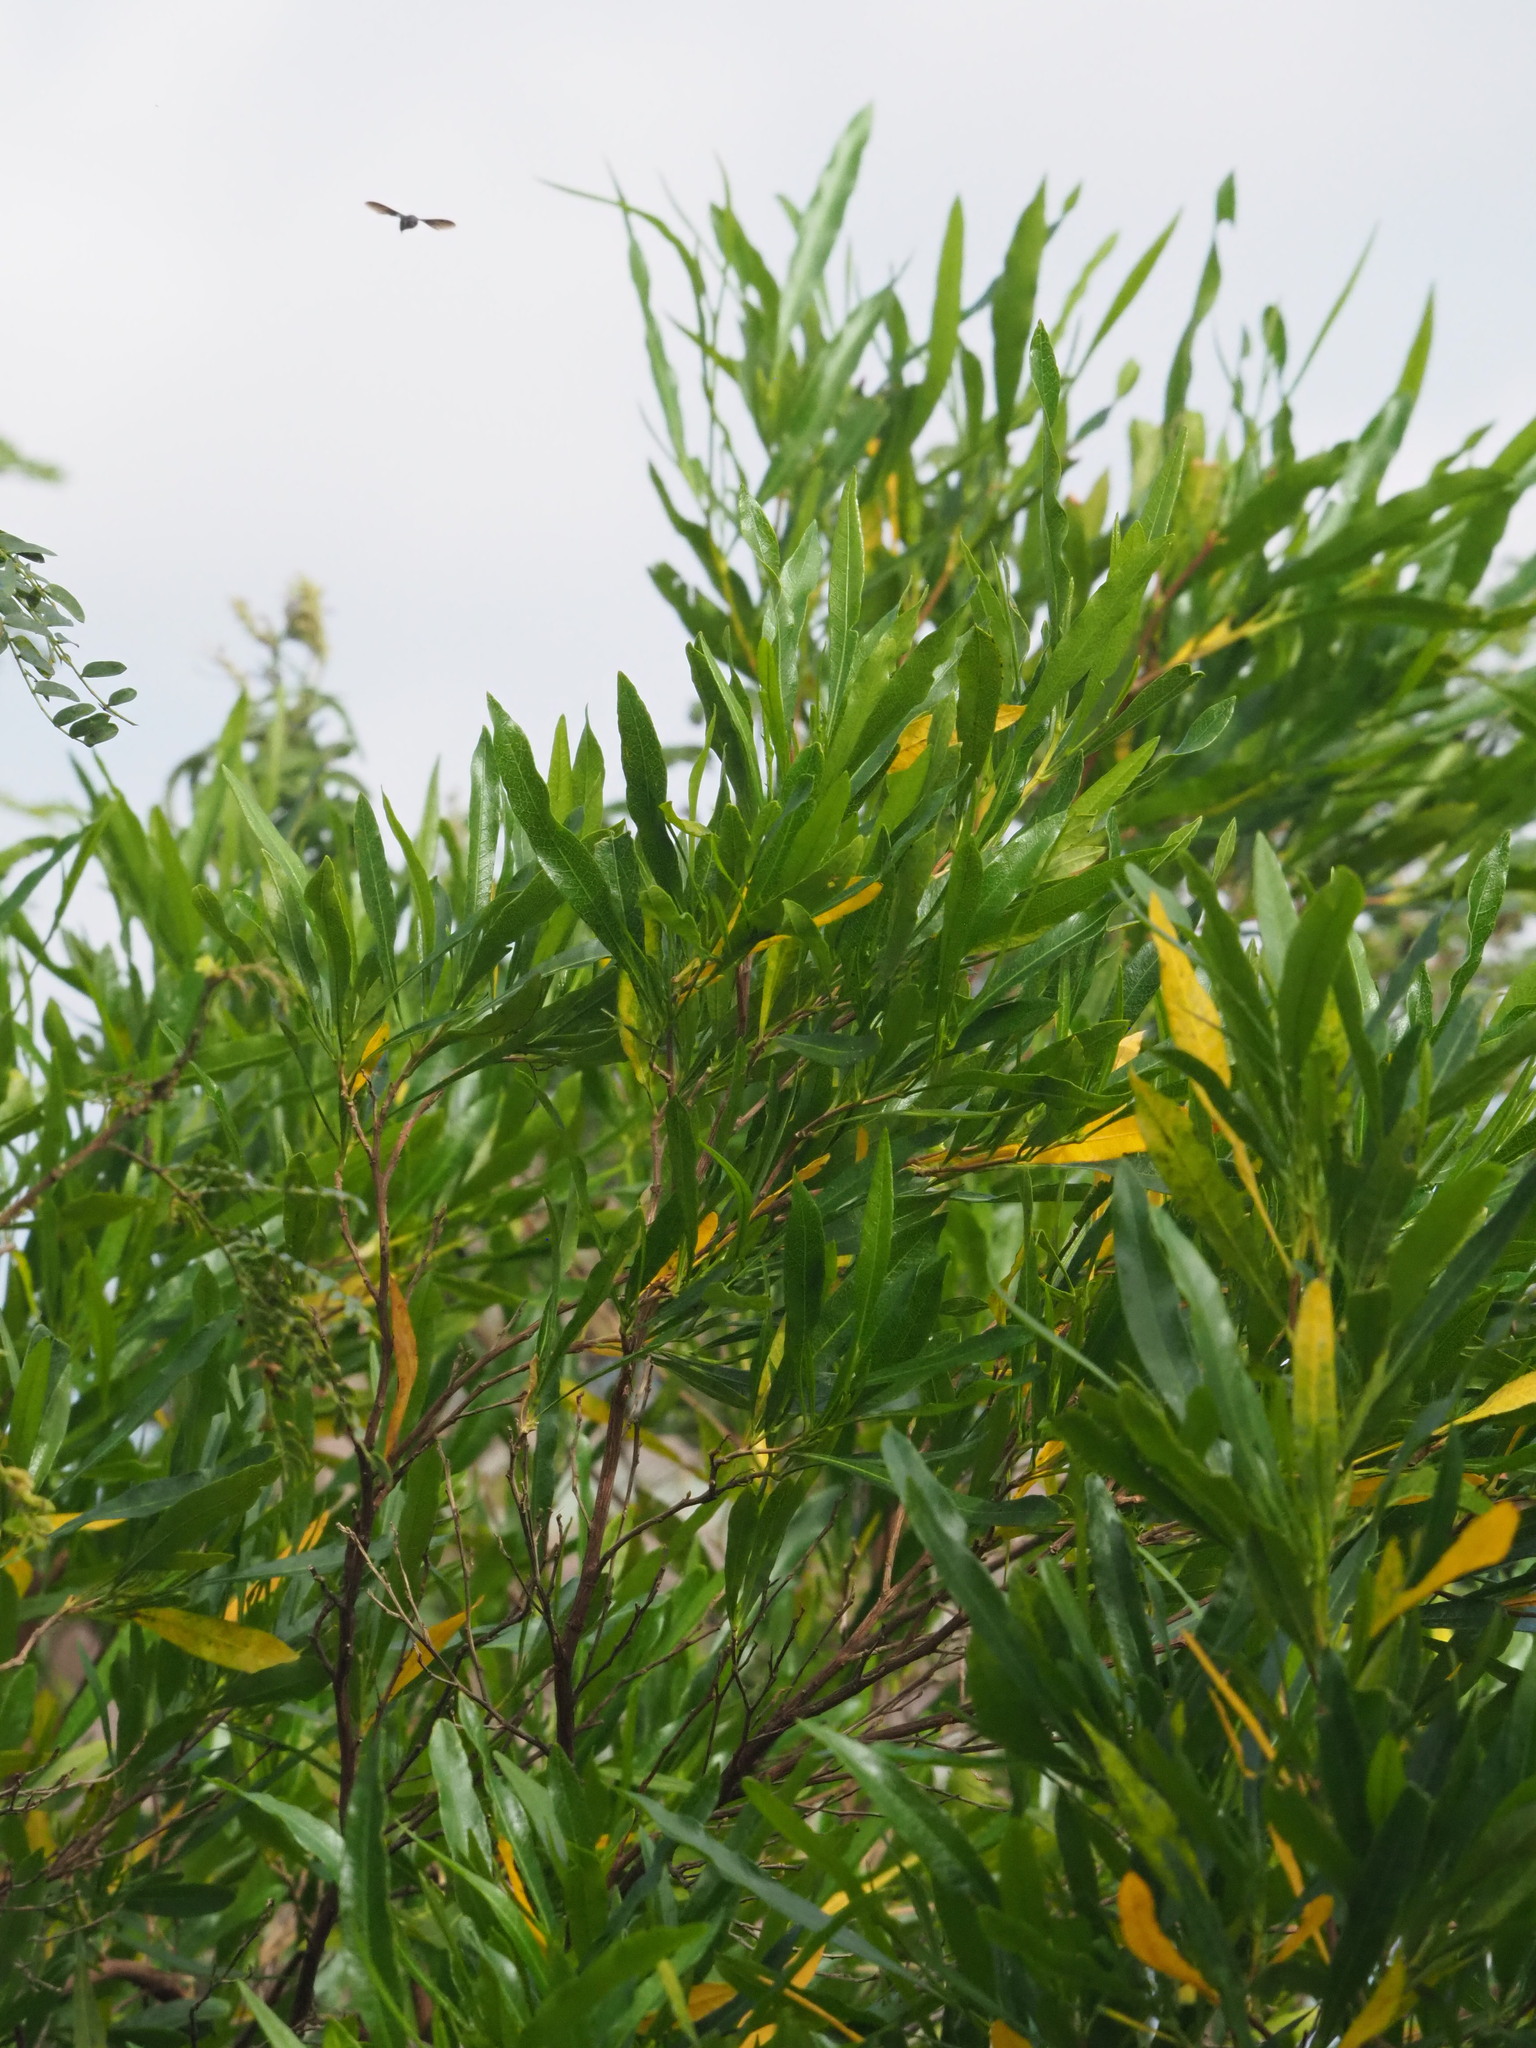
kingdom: Plantae
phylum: Tracheophyta
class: Magnoliopsida
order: Sapindales
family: Sapindaceae
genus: Dodonaea
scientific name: Dodonaea viscosa
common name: Hopbush
